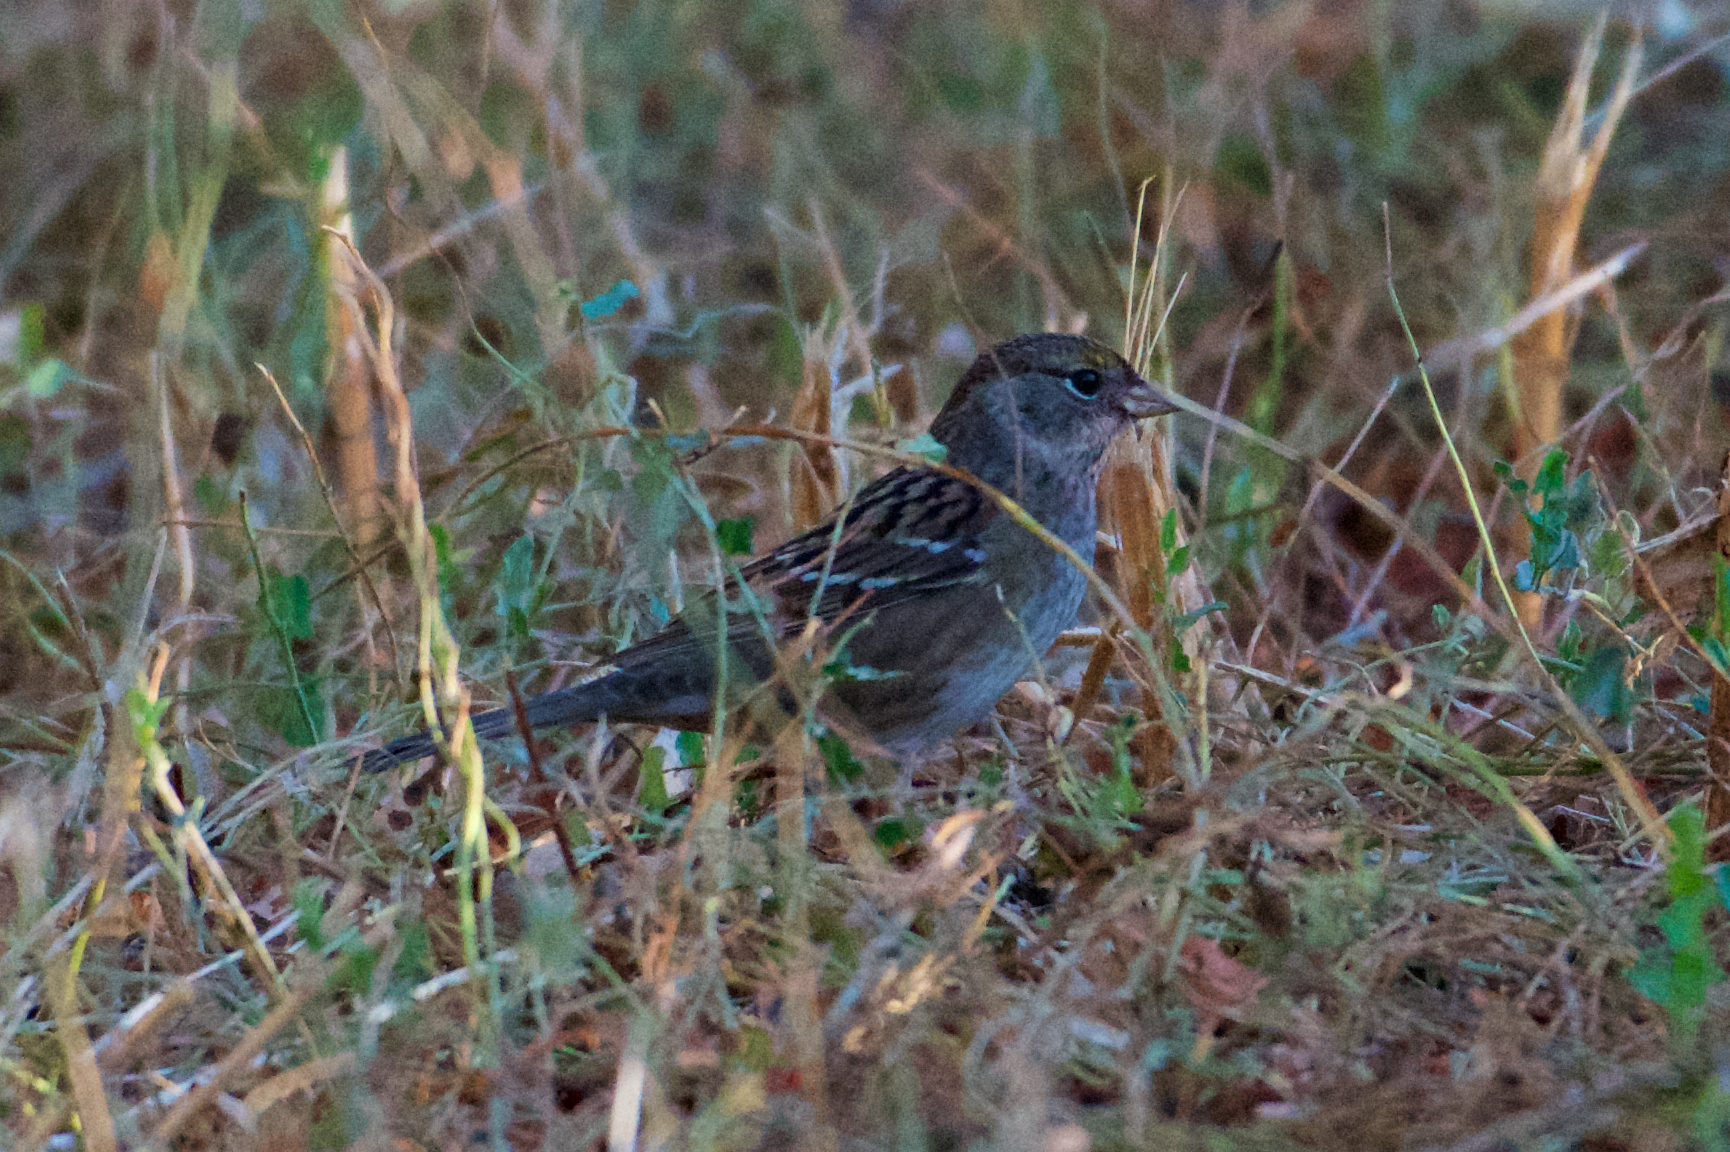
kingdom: Animalia
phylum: Chordata
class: Aves
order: Passeriformes
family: Passerellidae
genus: Zonotrichia
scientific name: Zonotrichia atricapilla
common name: Golden-crowned sparrow
